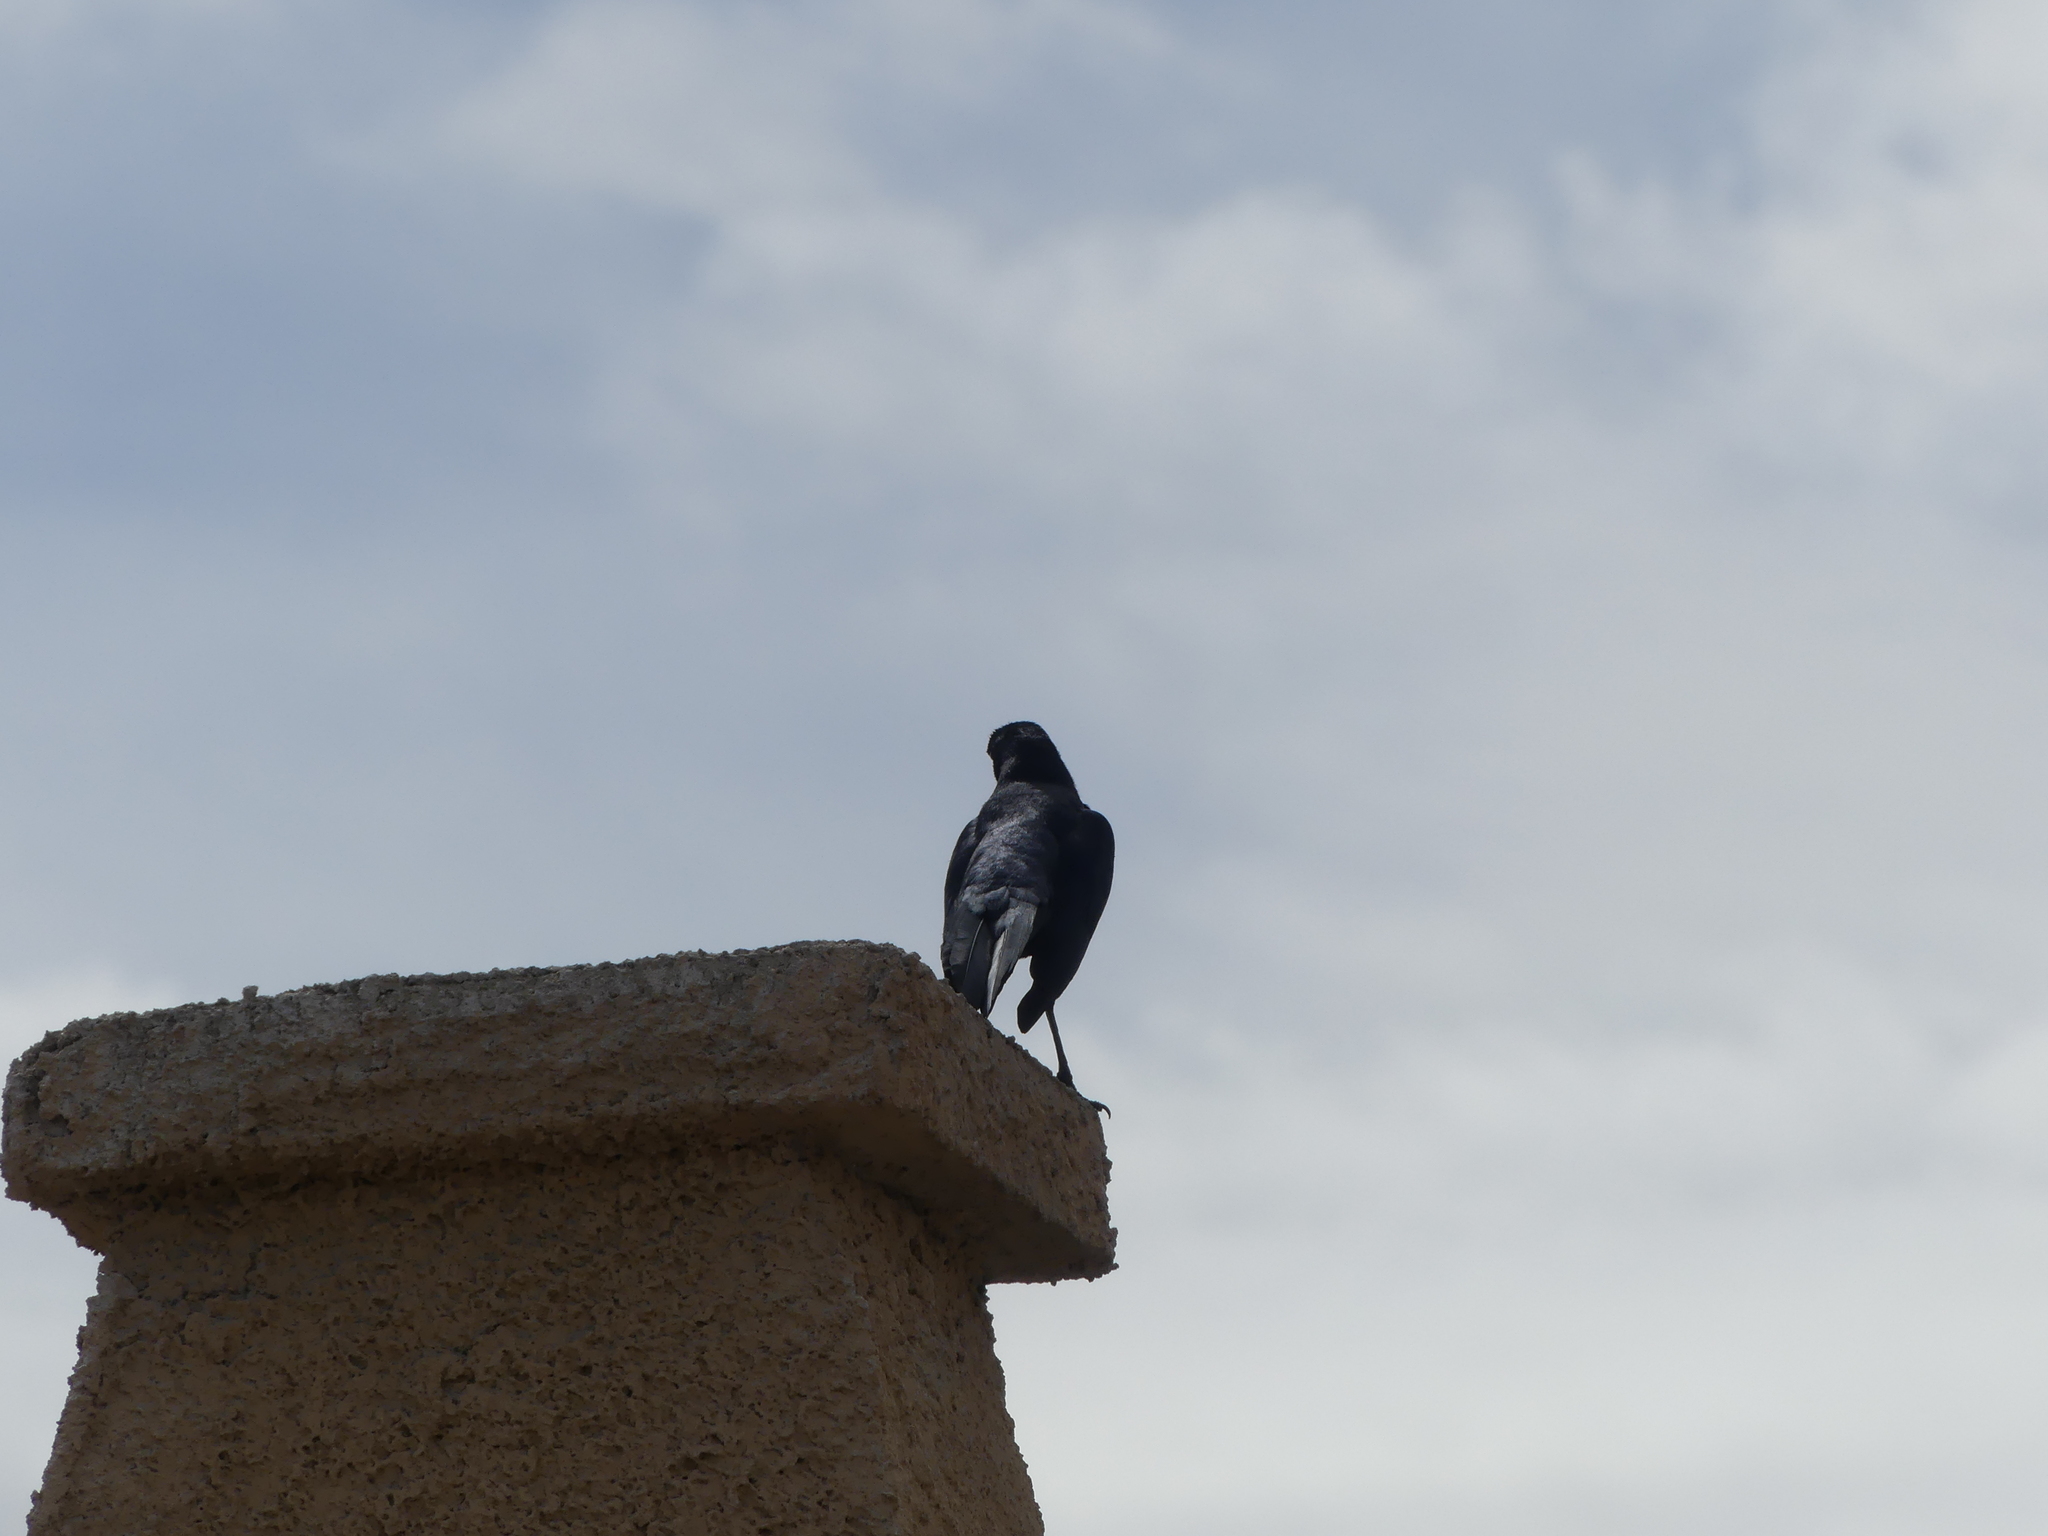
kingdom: Animalia
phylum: Chordata
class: Aves
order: Passeriformes
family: Icteridae
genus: Quiscalus
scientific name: Quiscalus mexicanus
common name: Great-tailed grackle
